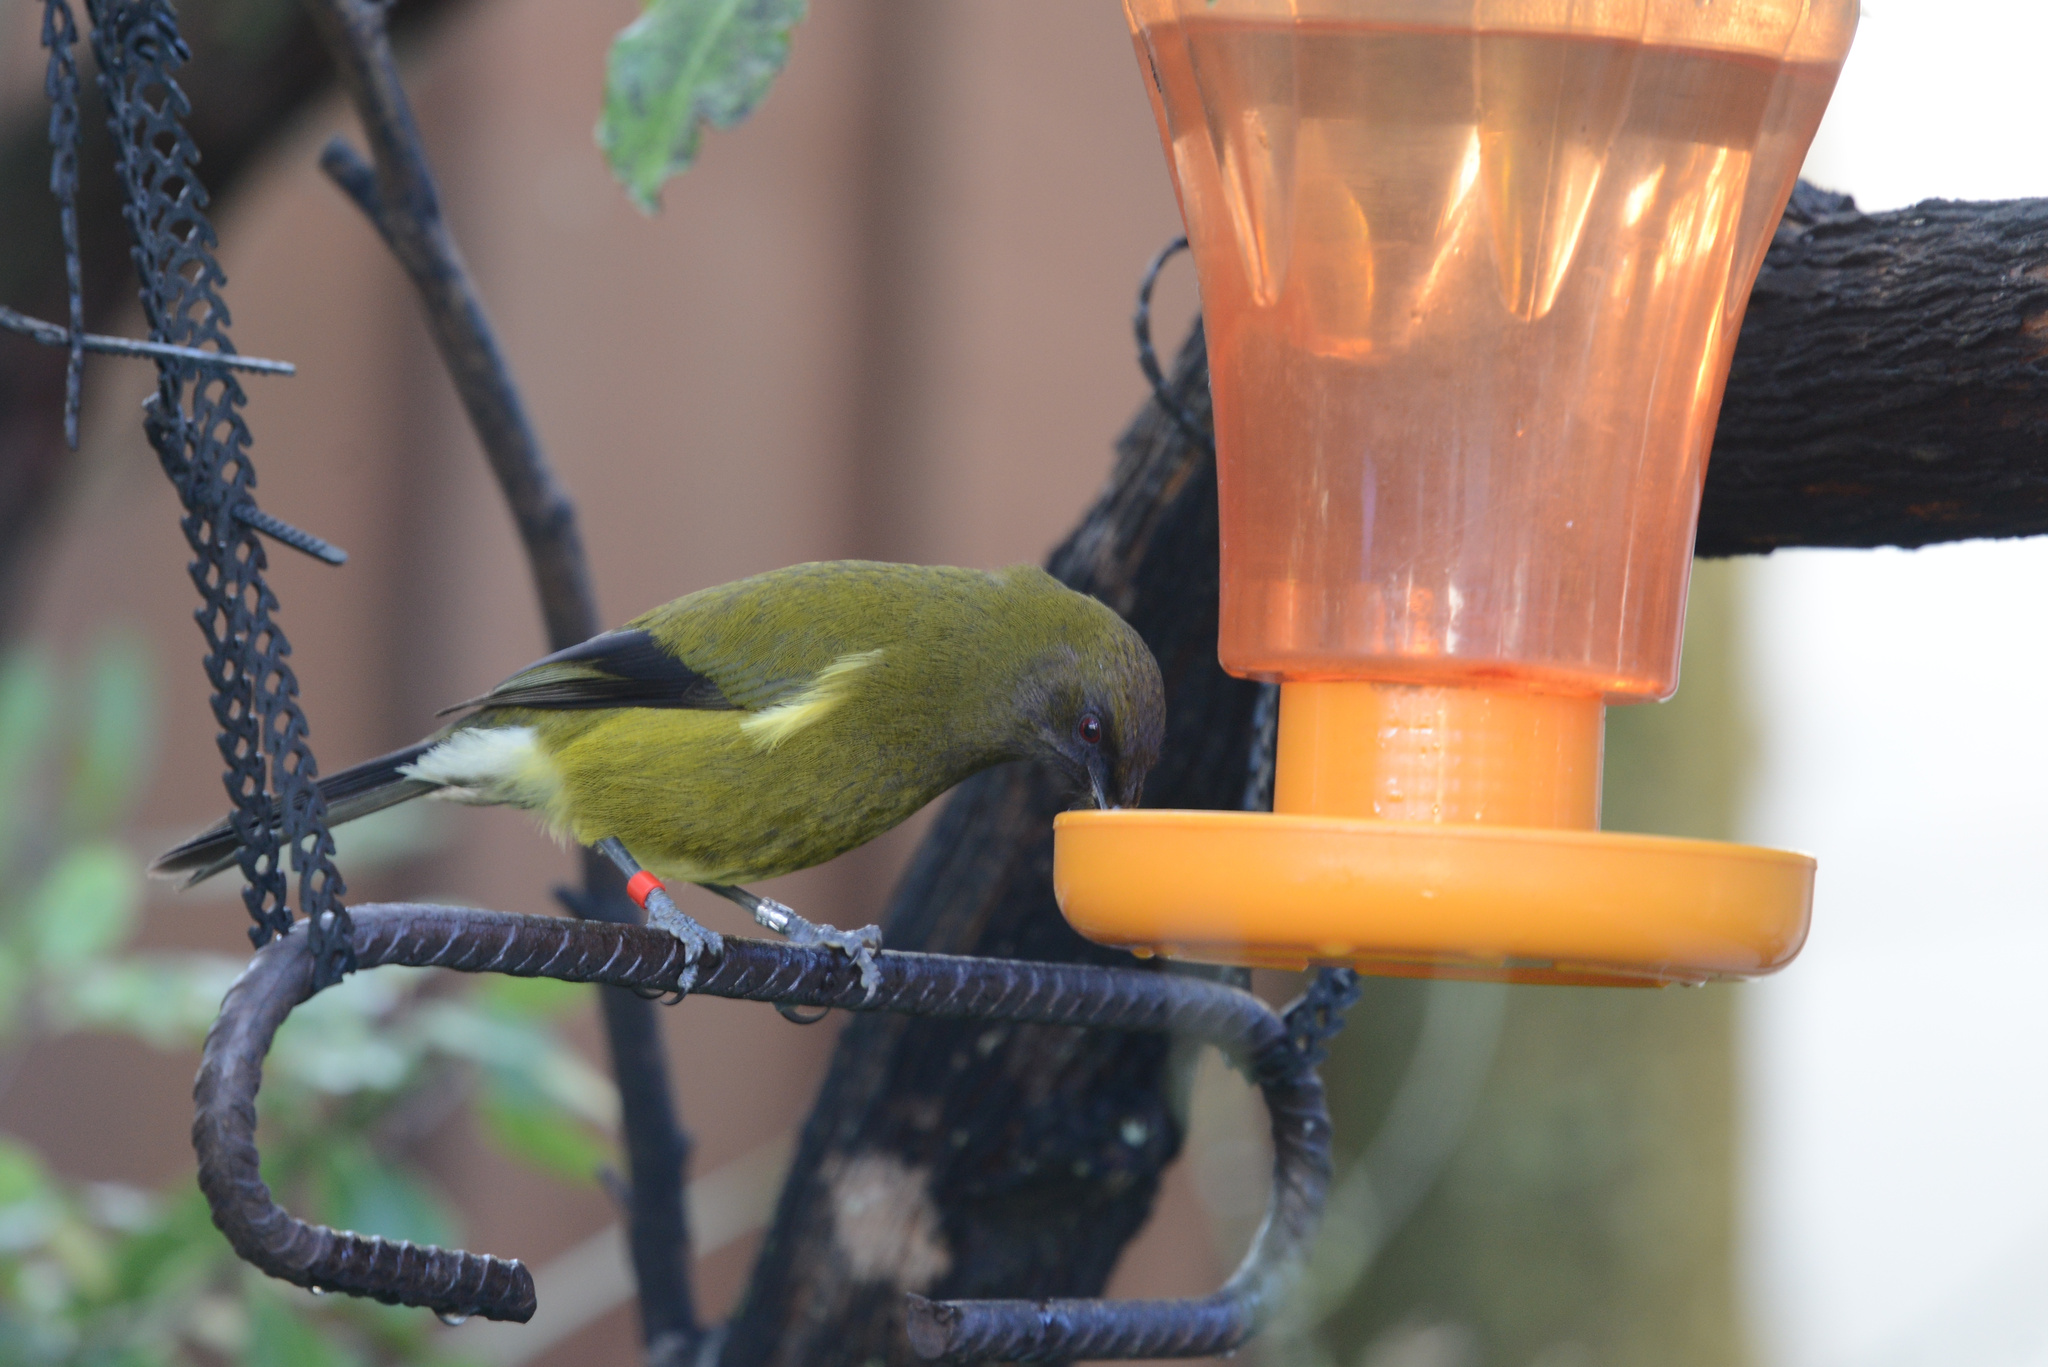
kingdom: Animalia
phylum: Chordata
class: Aves
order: Passeriformes
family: Meliphagidae
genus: Anthornis
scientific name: Anthornis melanura
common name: New zealand bellbird
